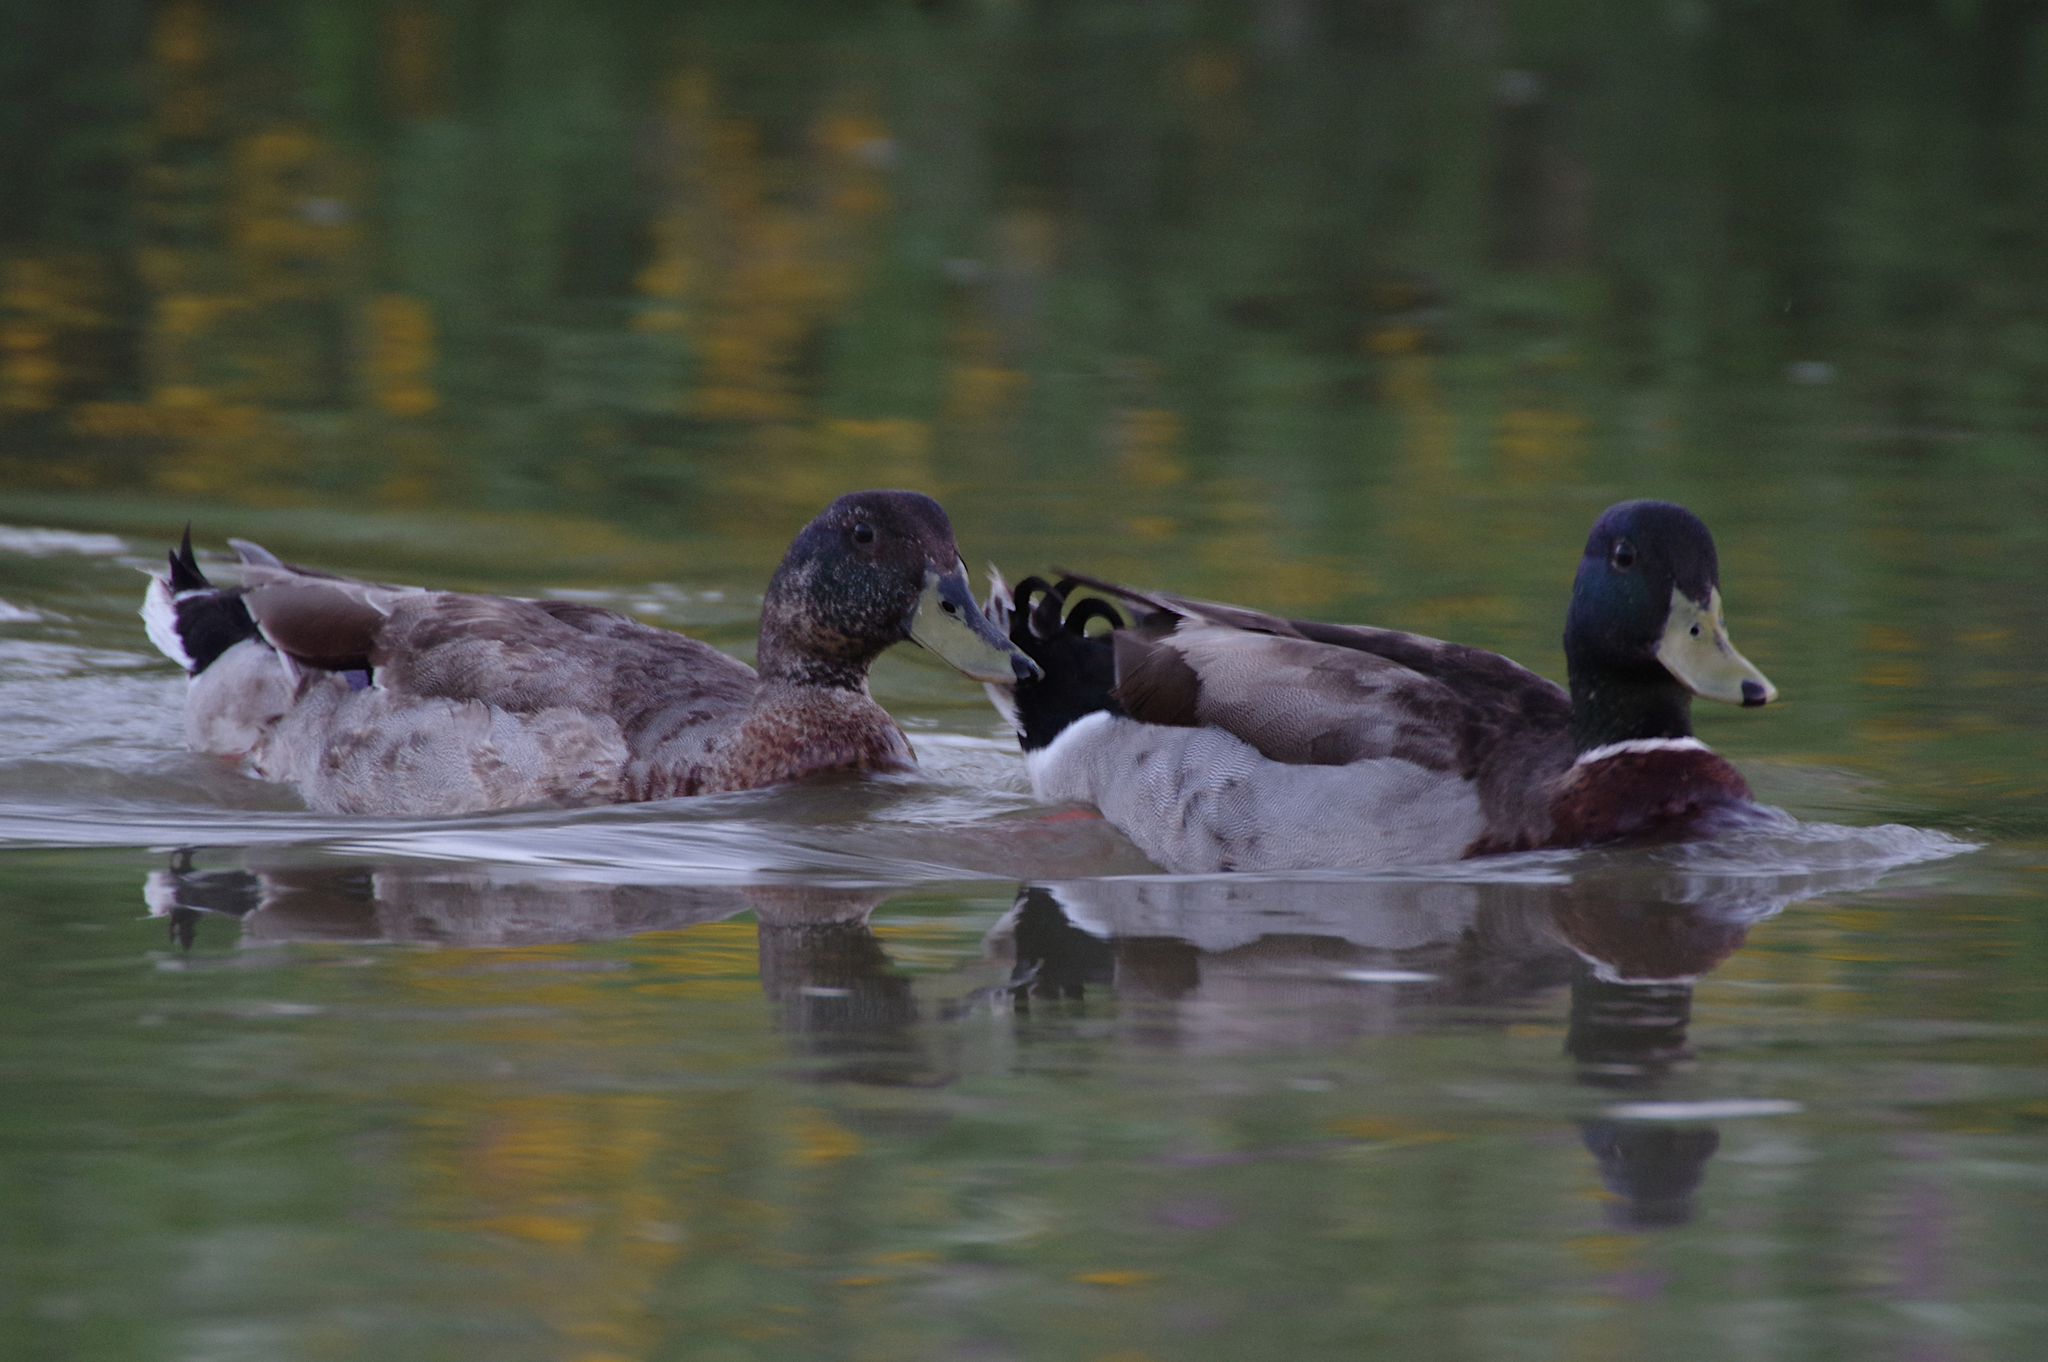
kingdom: Animalia
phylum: Chordata
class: Aves
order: Anseriformes
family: Anatidae
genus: Anas
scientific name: Anas platyrhynchos
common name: Mallard
